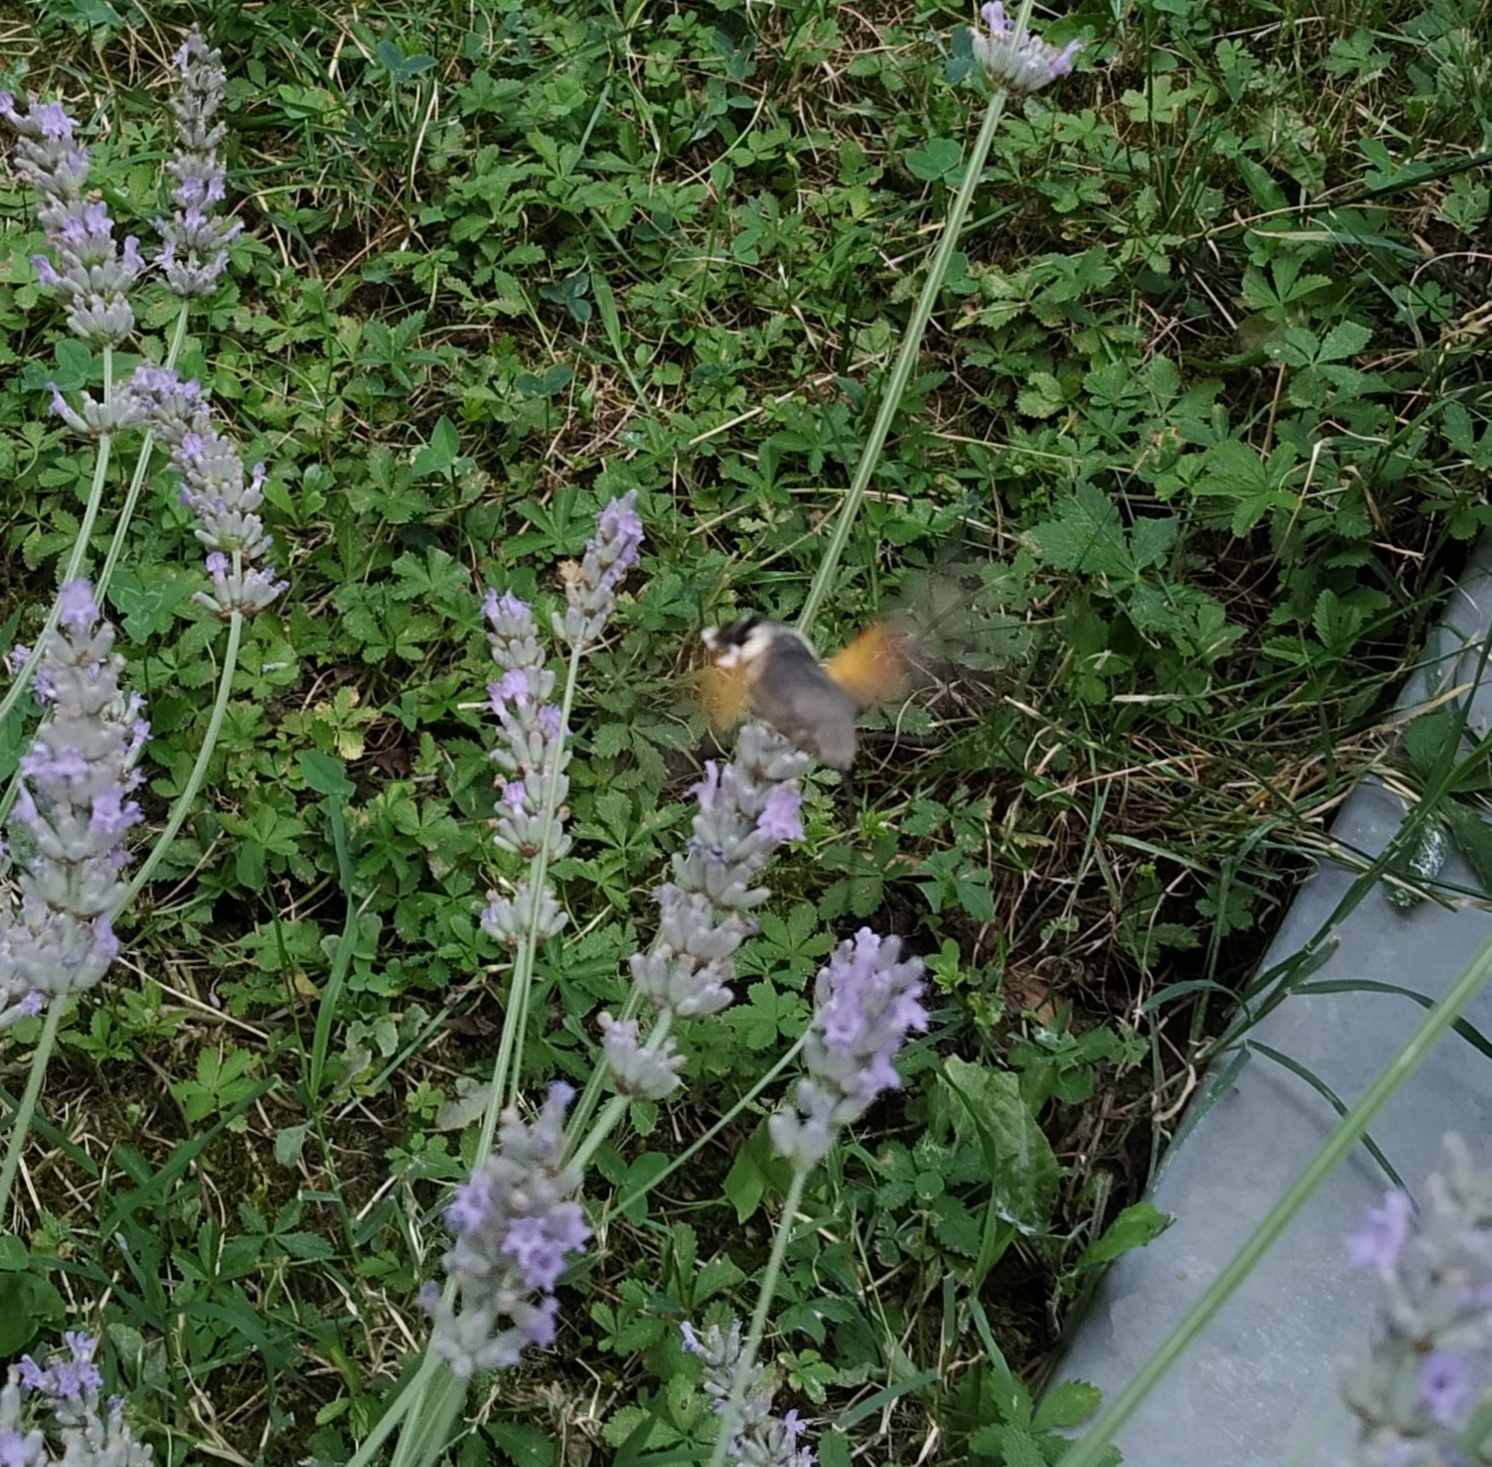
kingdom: Animalia
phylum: Arthropoda
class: Insecta
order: Lepidoptera
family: Sphingidae
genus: Macroglossum
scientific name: Macroglossum stellatarum
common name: Humming-bird hawk-moth
